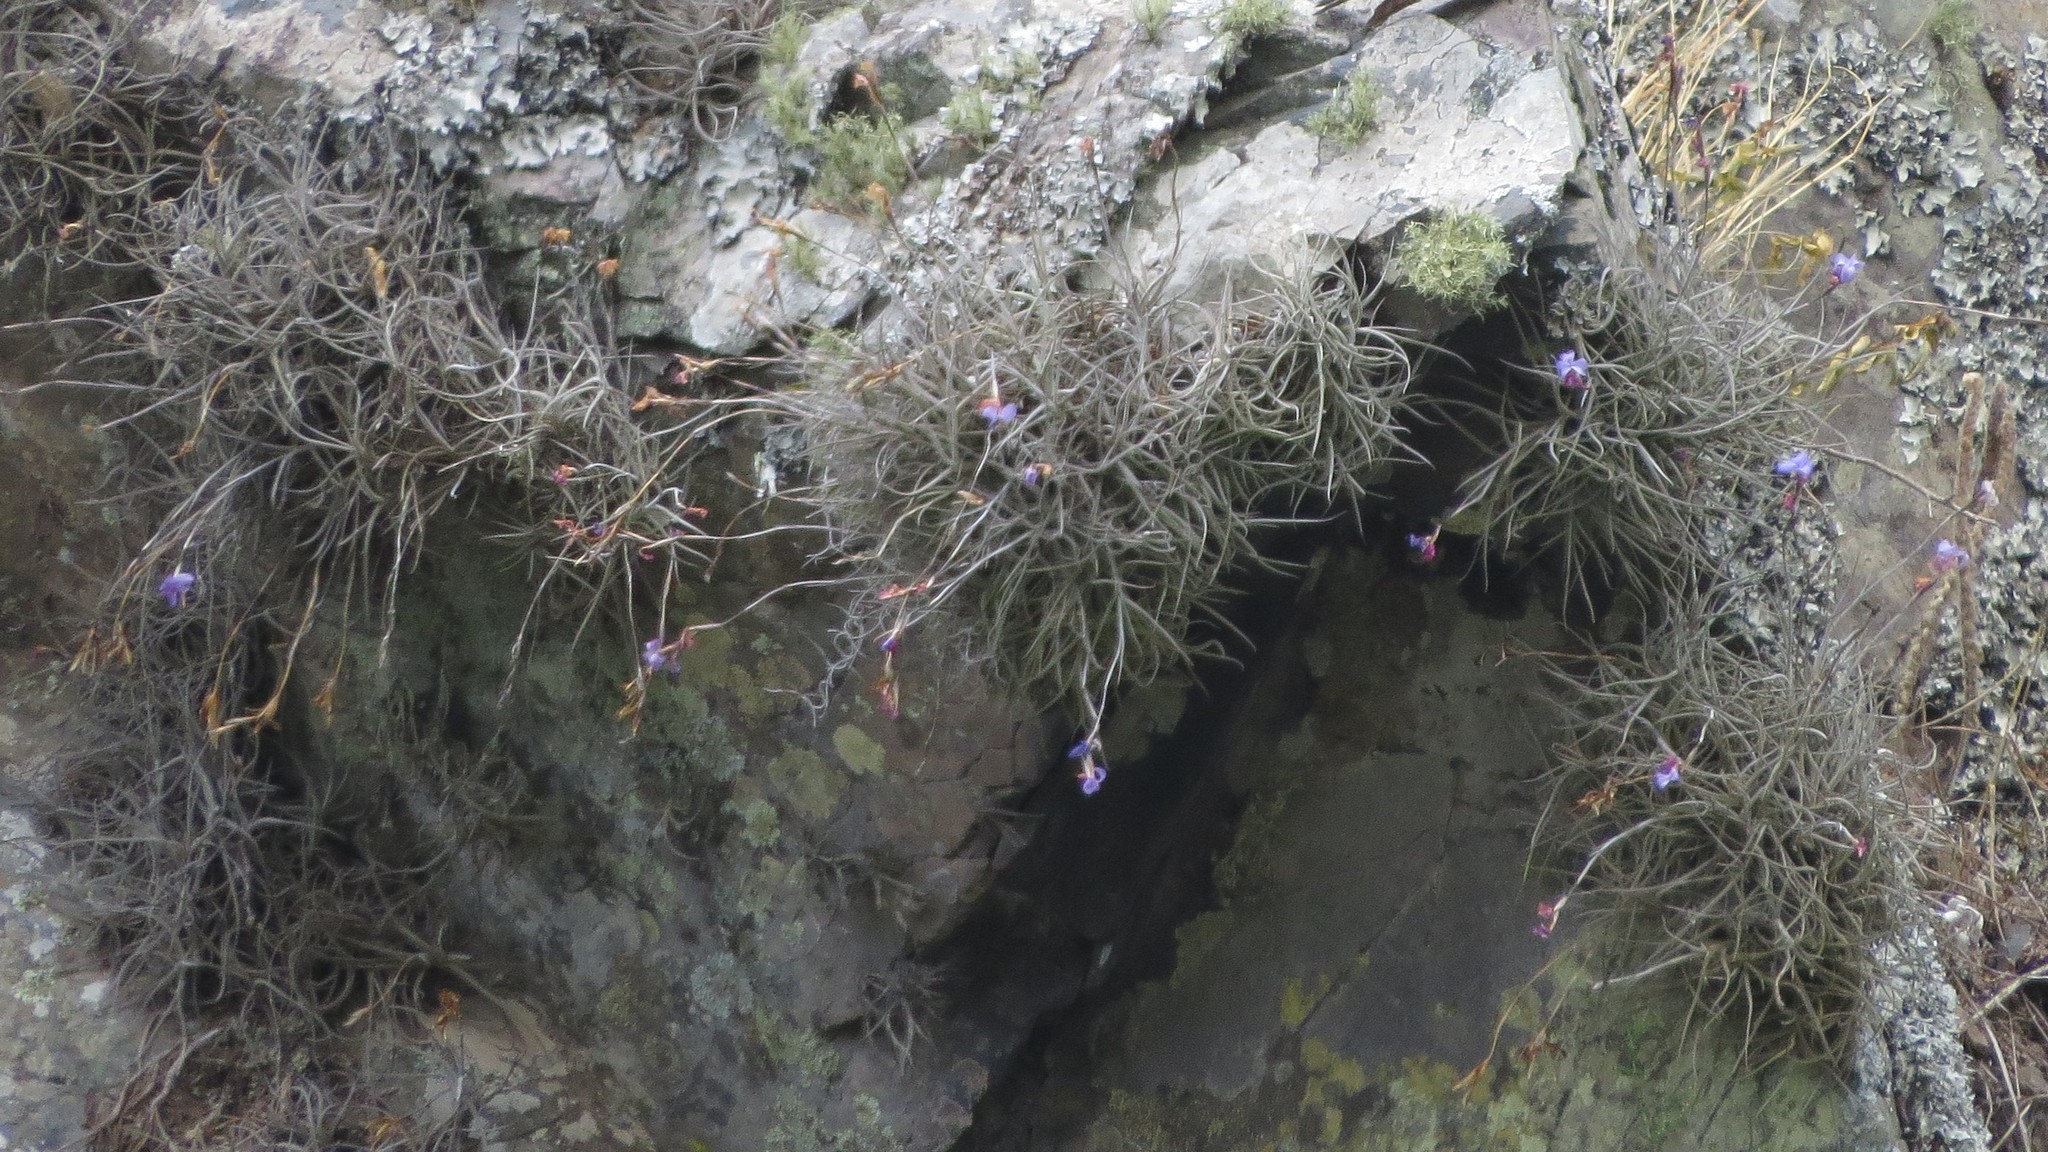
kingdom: Plantae
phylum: Tracheophyta
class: Liliopsida
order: Poales
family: Bromeliaceae
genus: Tillandsia
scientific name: Tillandsia bandensis
